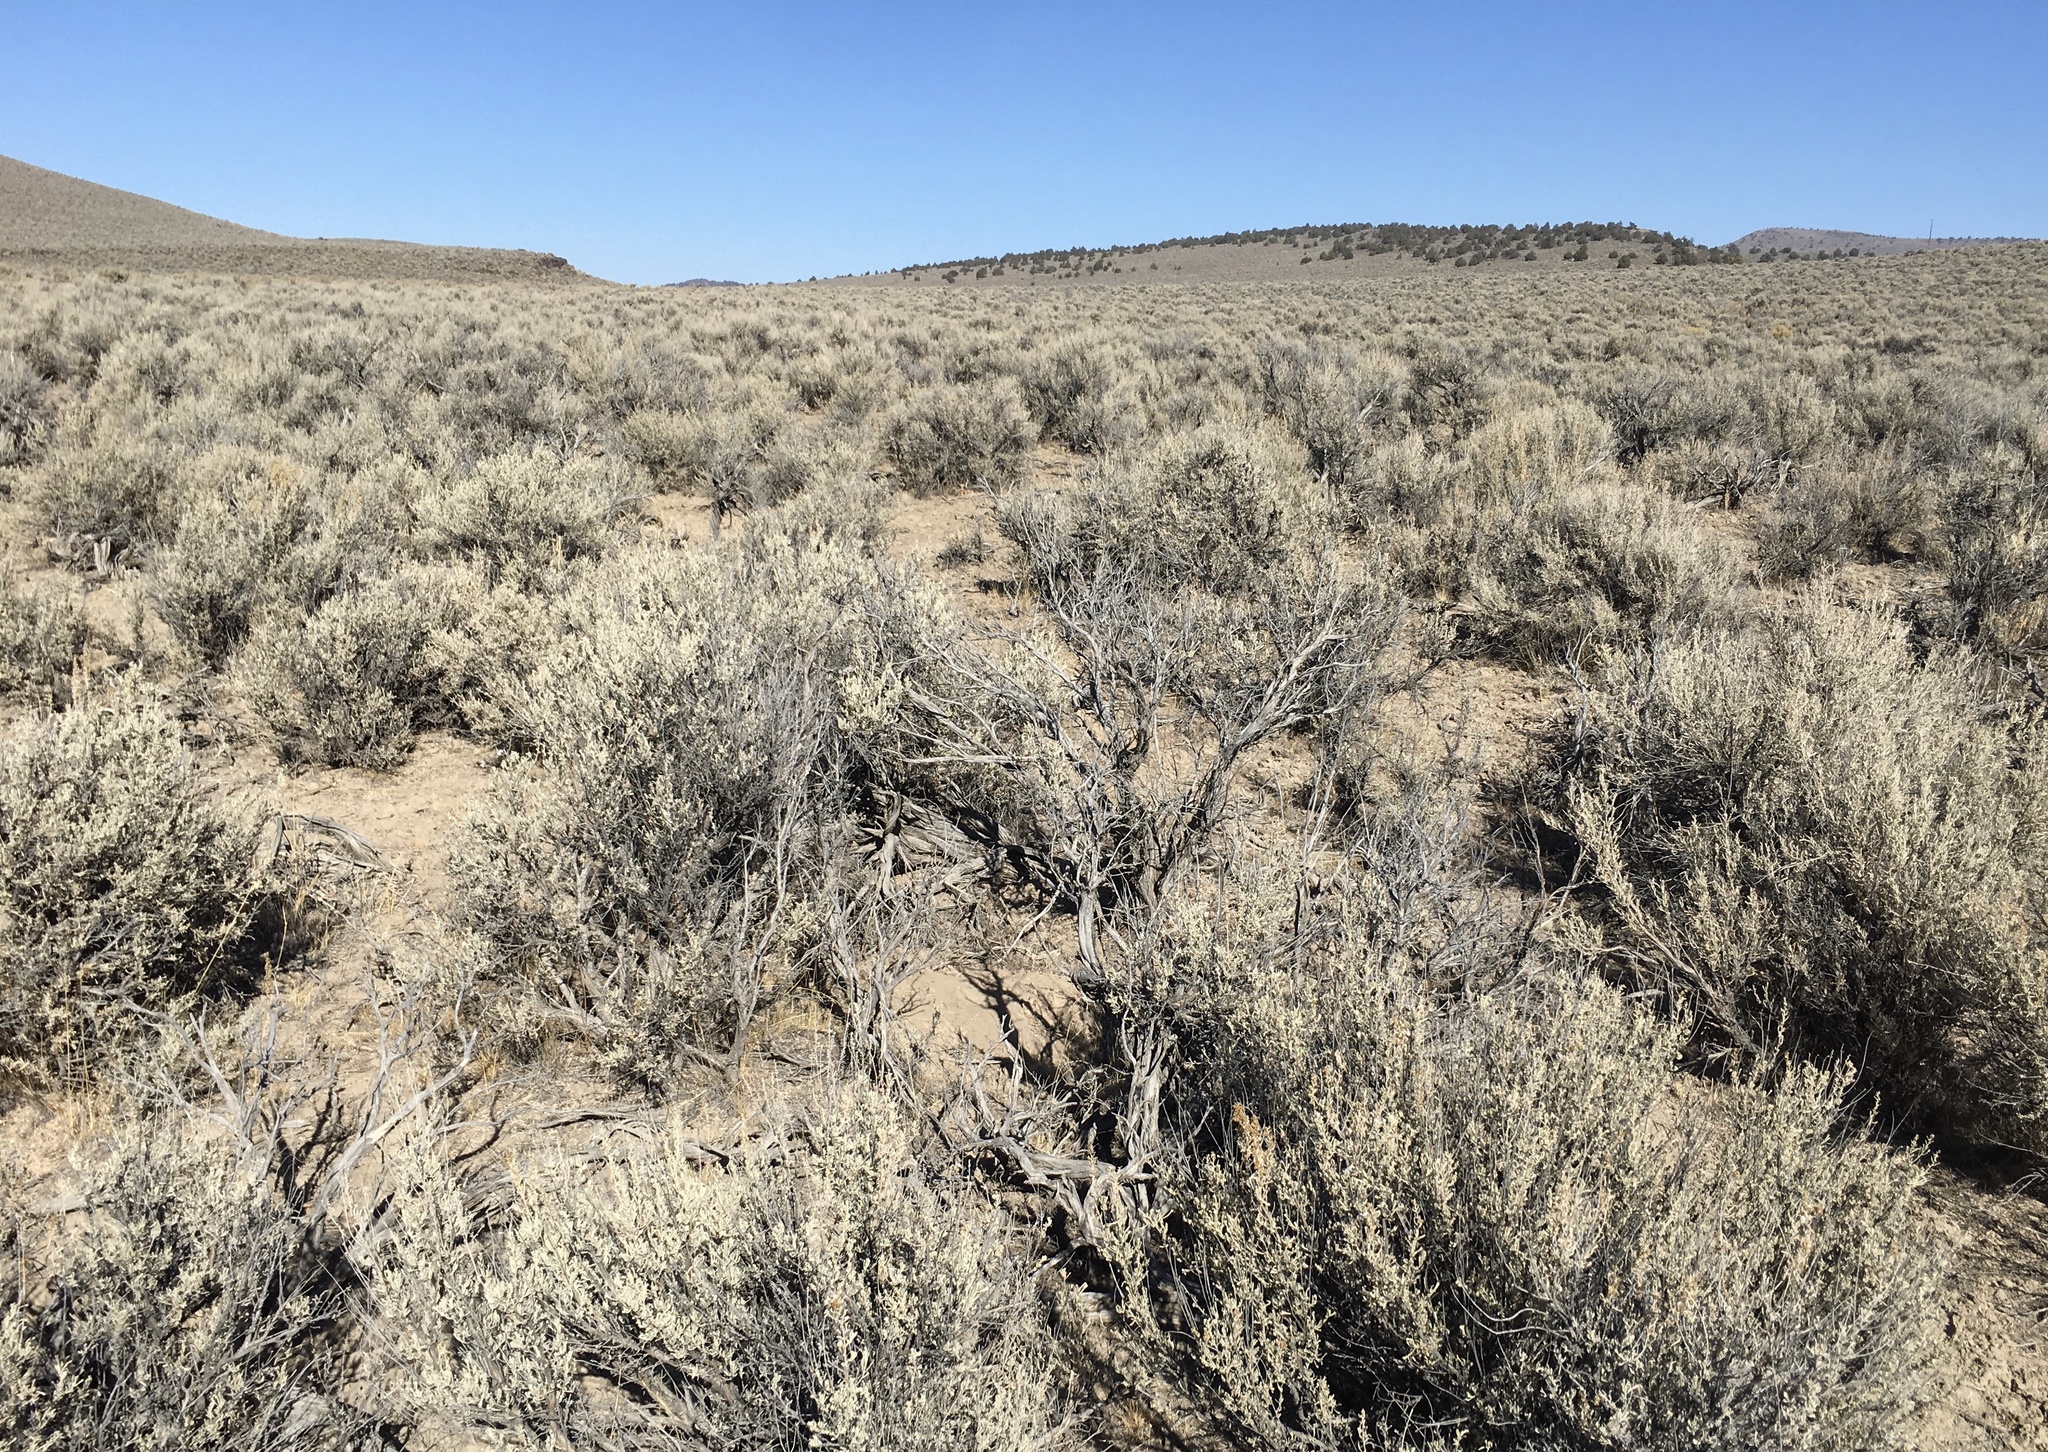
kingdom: Plantae
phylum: Tracheophyta
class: Magnoliopsida
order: Asterales
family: Asteraceae
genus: Artemisia
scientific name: Artemisia tridentata
